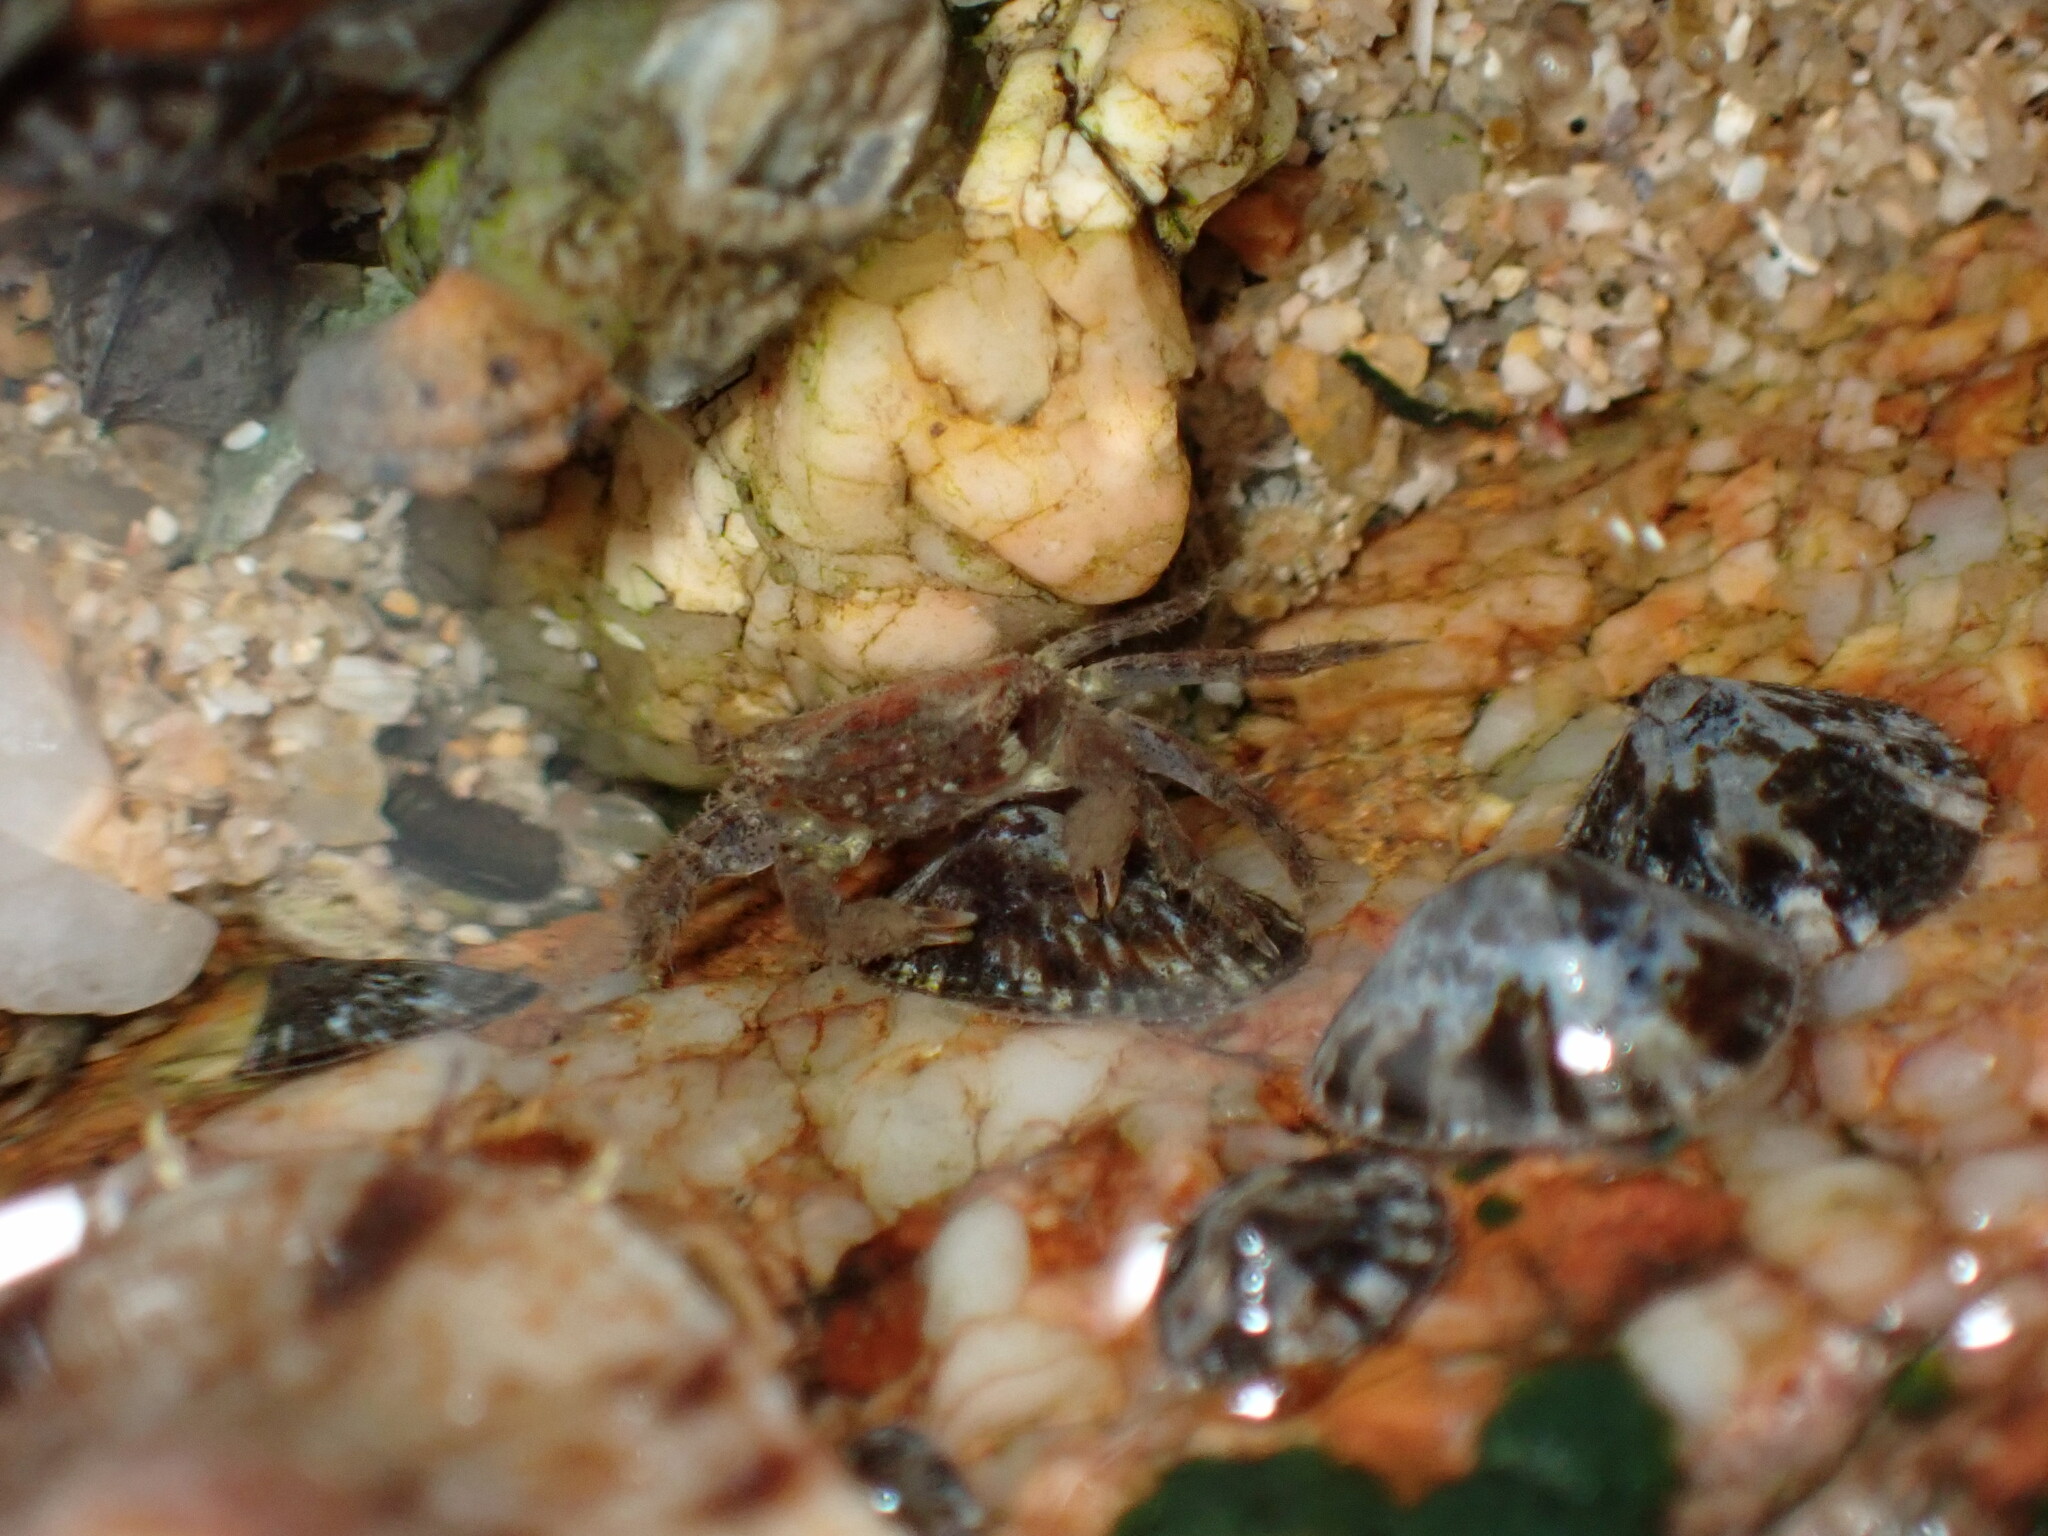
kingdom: Animalia
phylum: Arthropoda
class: Malacostraca
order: Decapoda
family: Sesarmidae
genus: Nanosesarma
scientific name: Nanosesarma minutum
